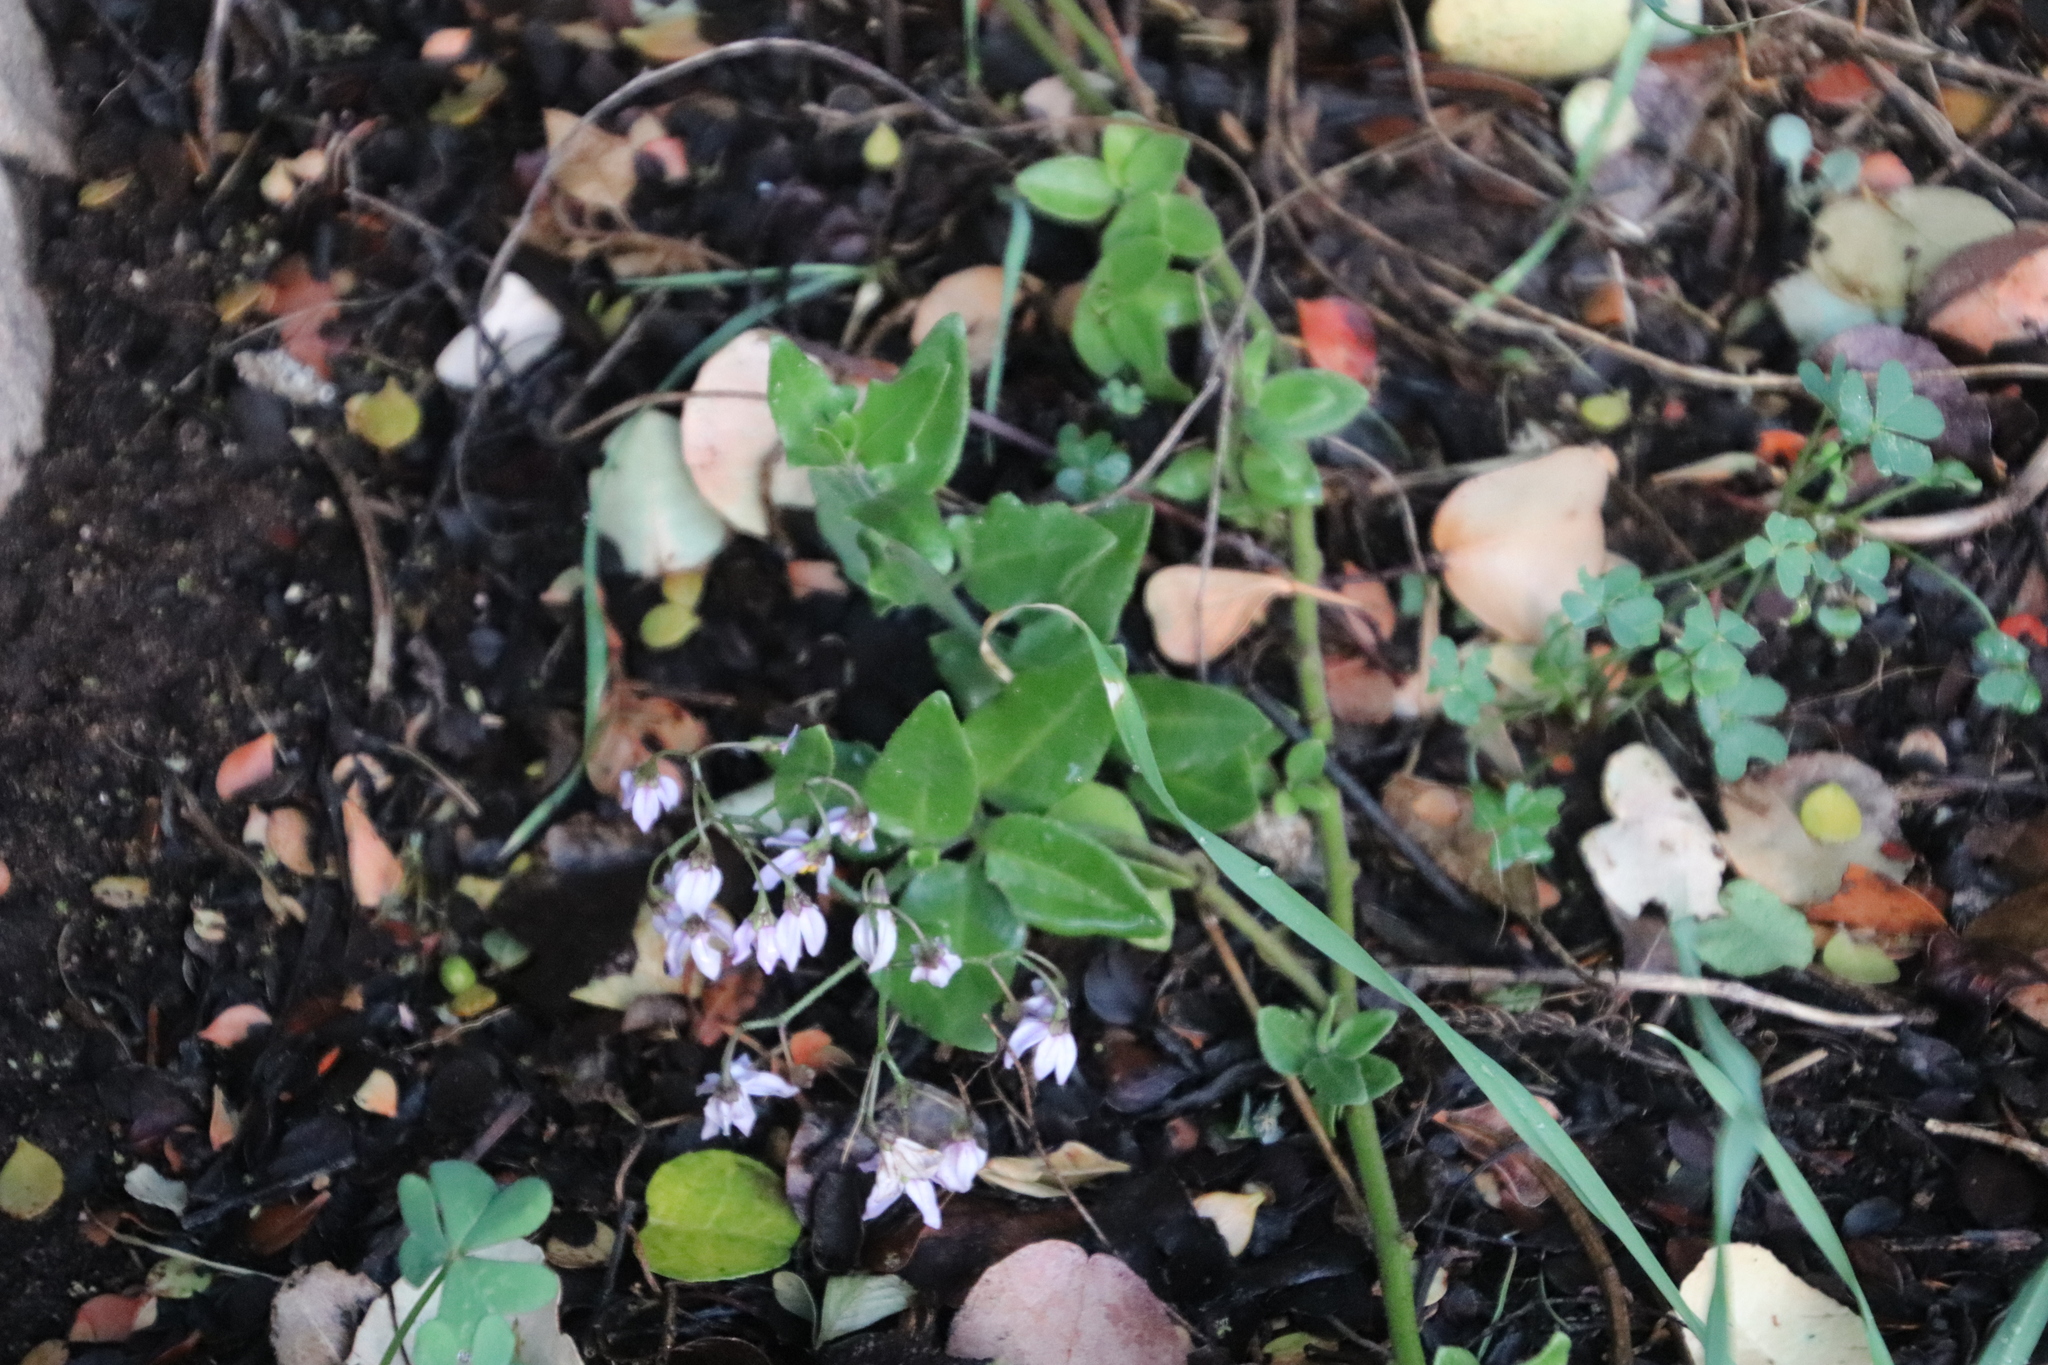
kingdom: Plantae
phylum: Tracheophyta
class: Magnoliopsida
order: Solanales
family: Solanaceae
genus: Solanum
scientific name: Solanum africanum
